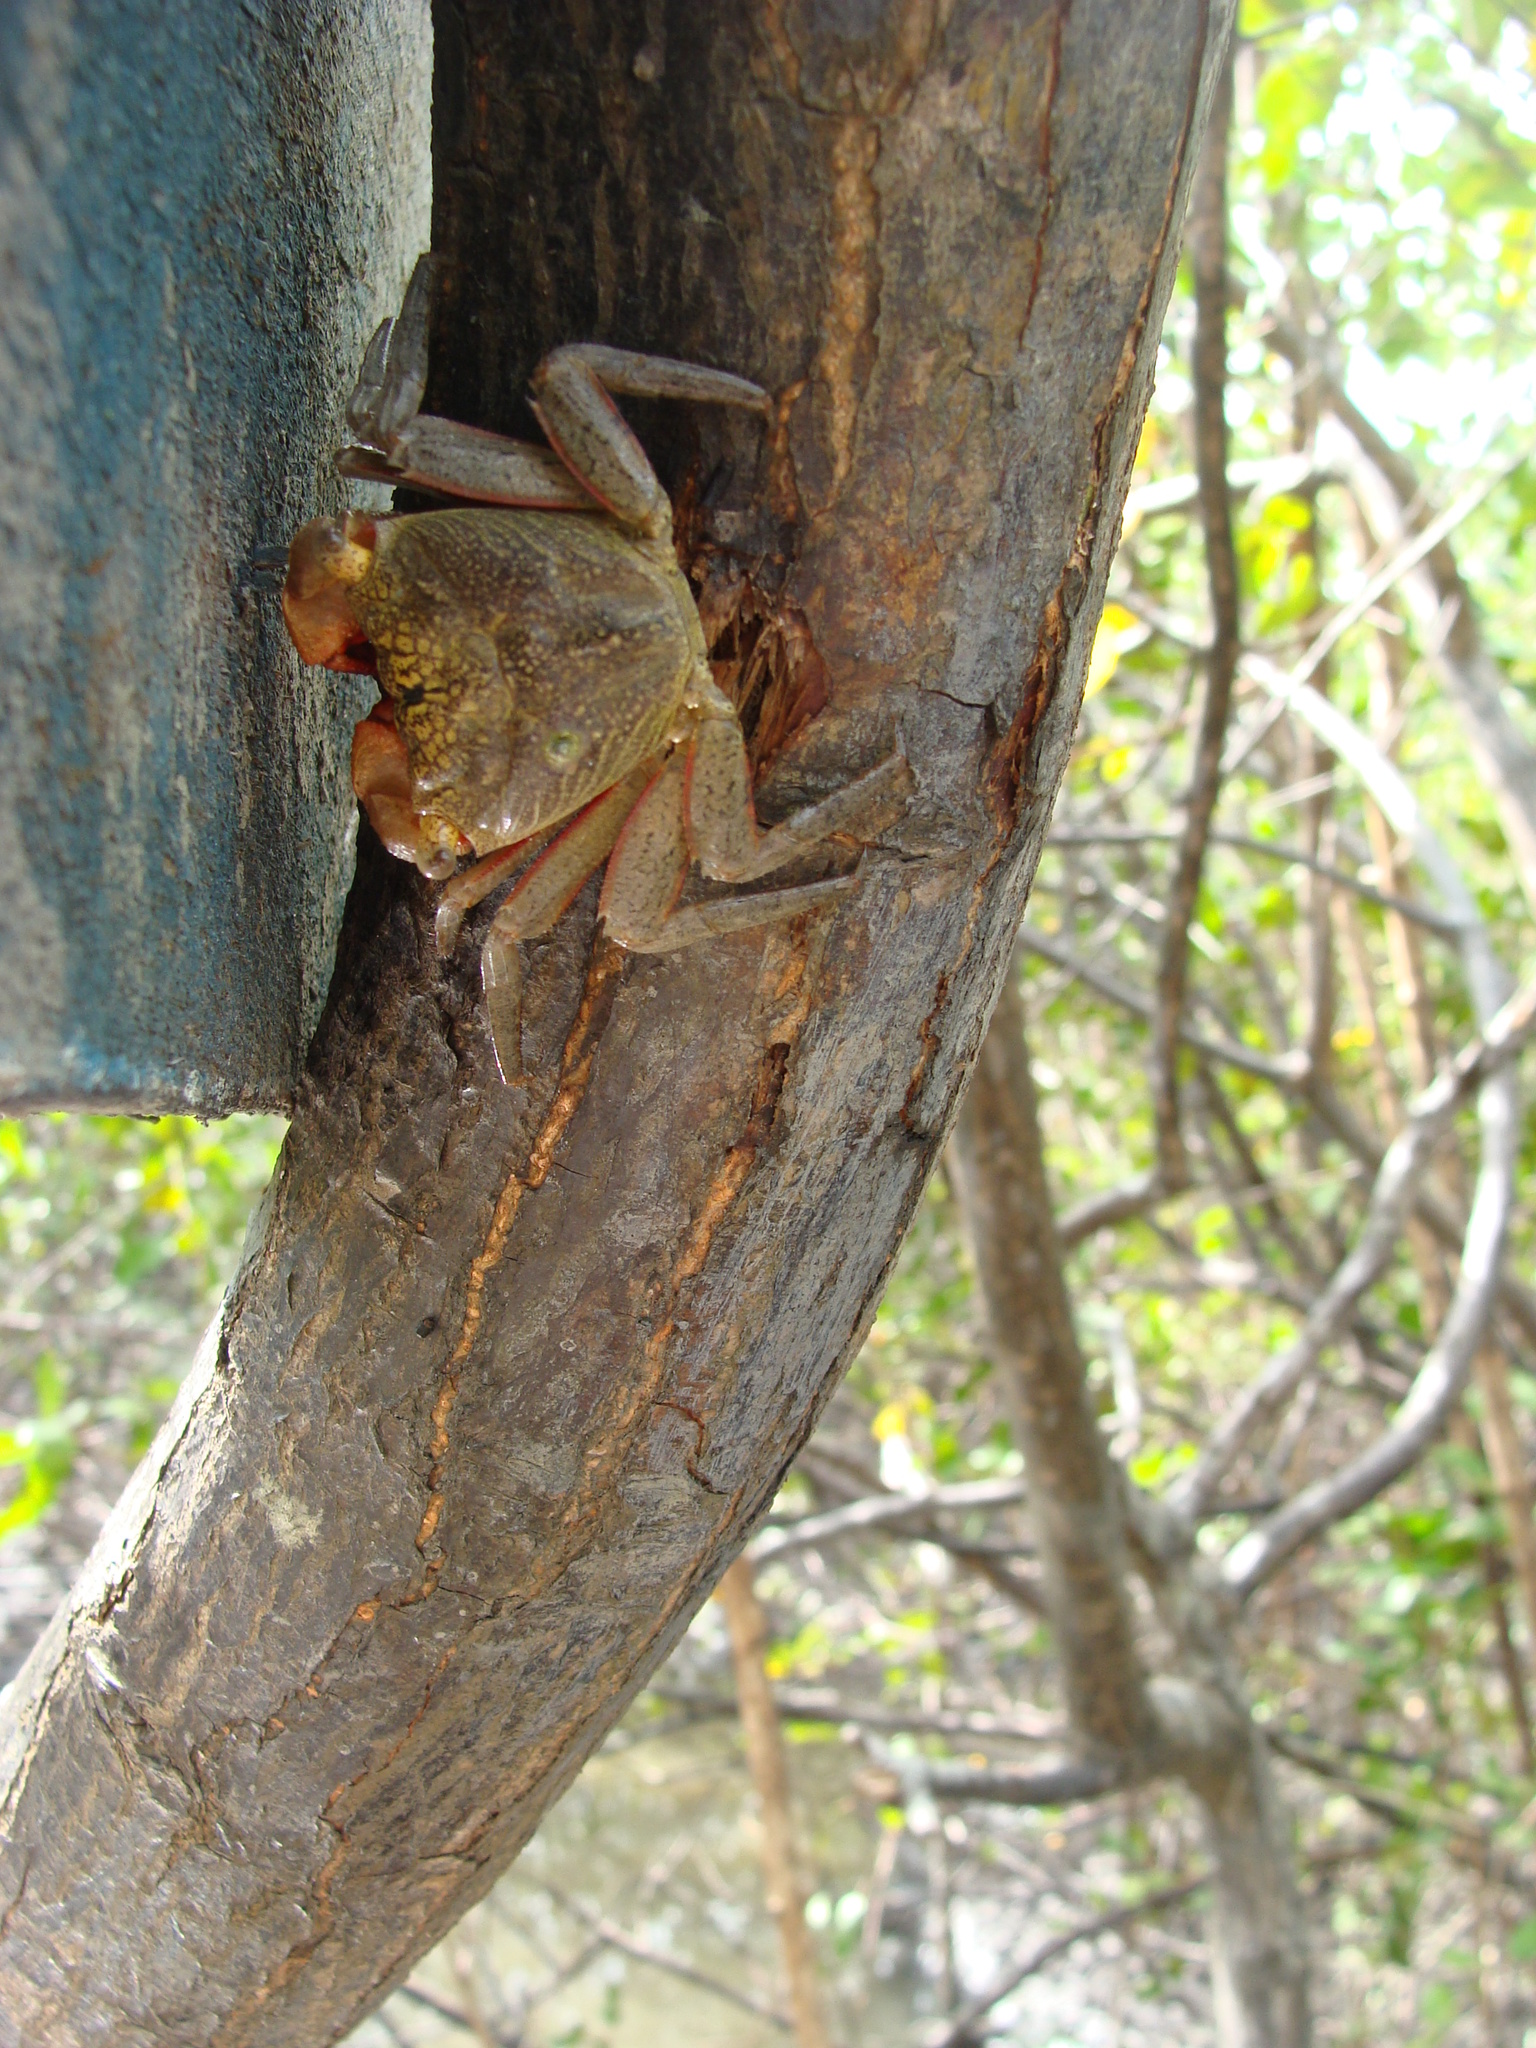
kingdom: Animalia
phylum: Arthropoda
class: Malacostraca
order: Decapoda
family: Sesarmidae
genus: Aratus
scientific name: Aratus pisonii
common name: Mangrove crab
